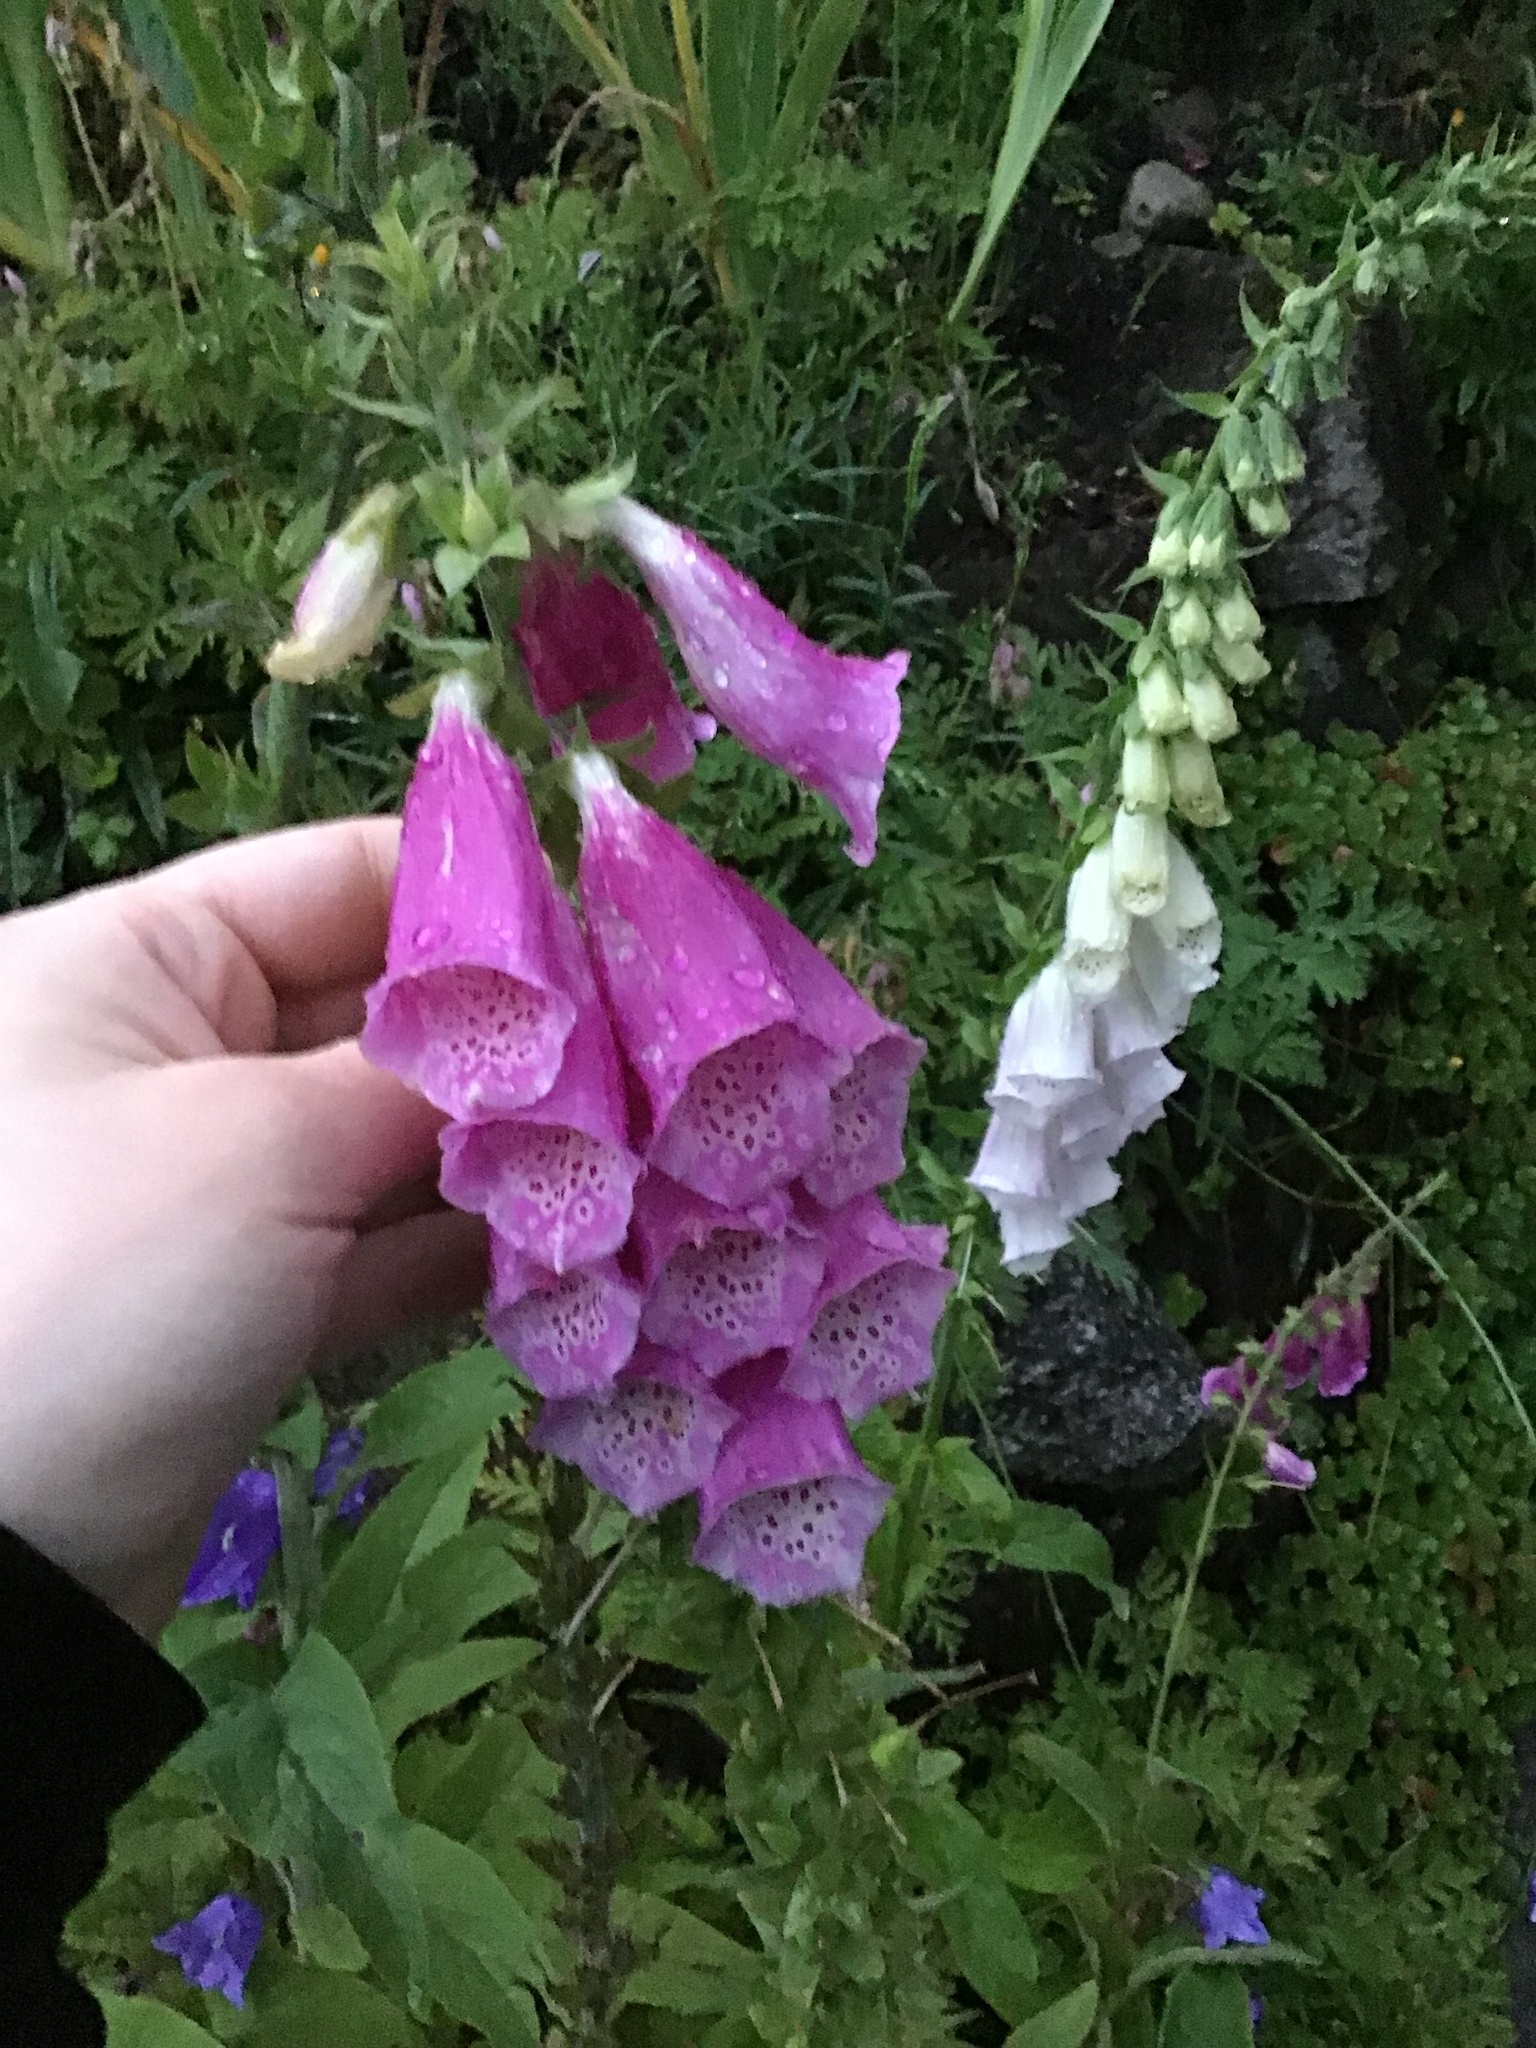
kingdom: Plantae
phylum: Tracheophyta
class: Magnoliopsida
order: Lamiales
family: Plantaginaceae
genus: Digitalis
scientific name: Digitalis purpurea
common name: Foxglove
